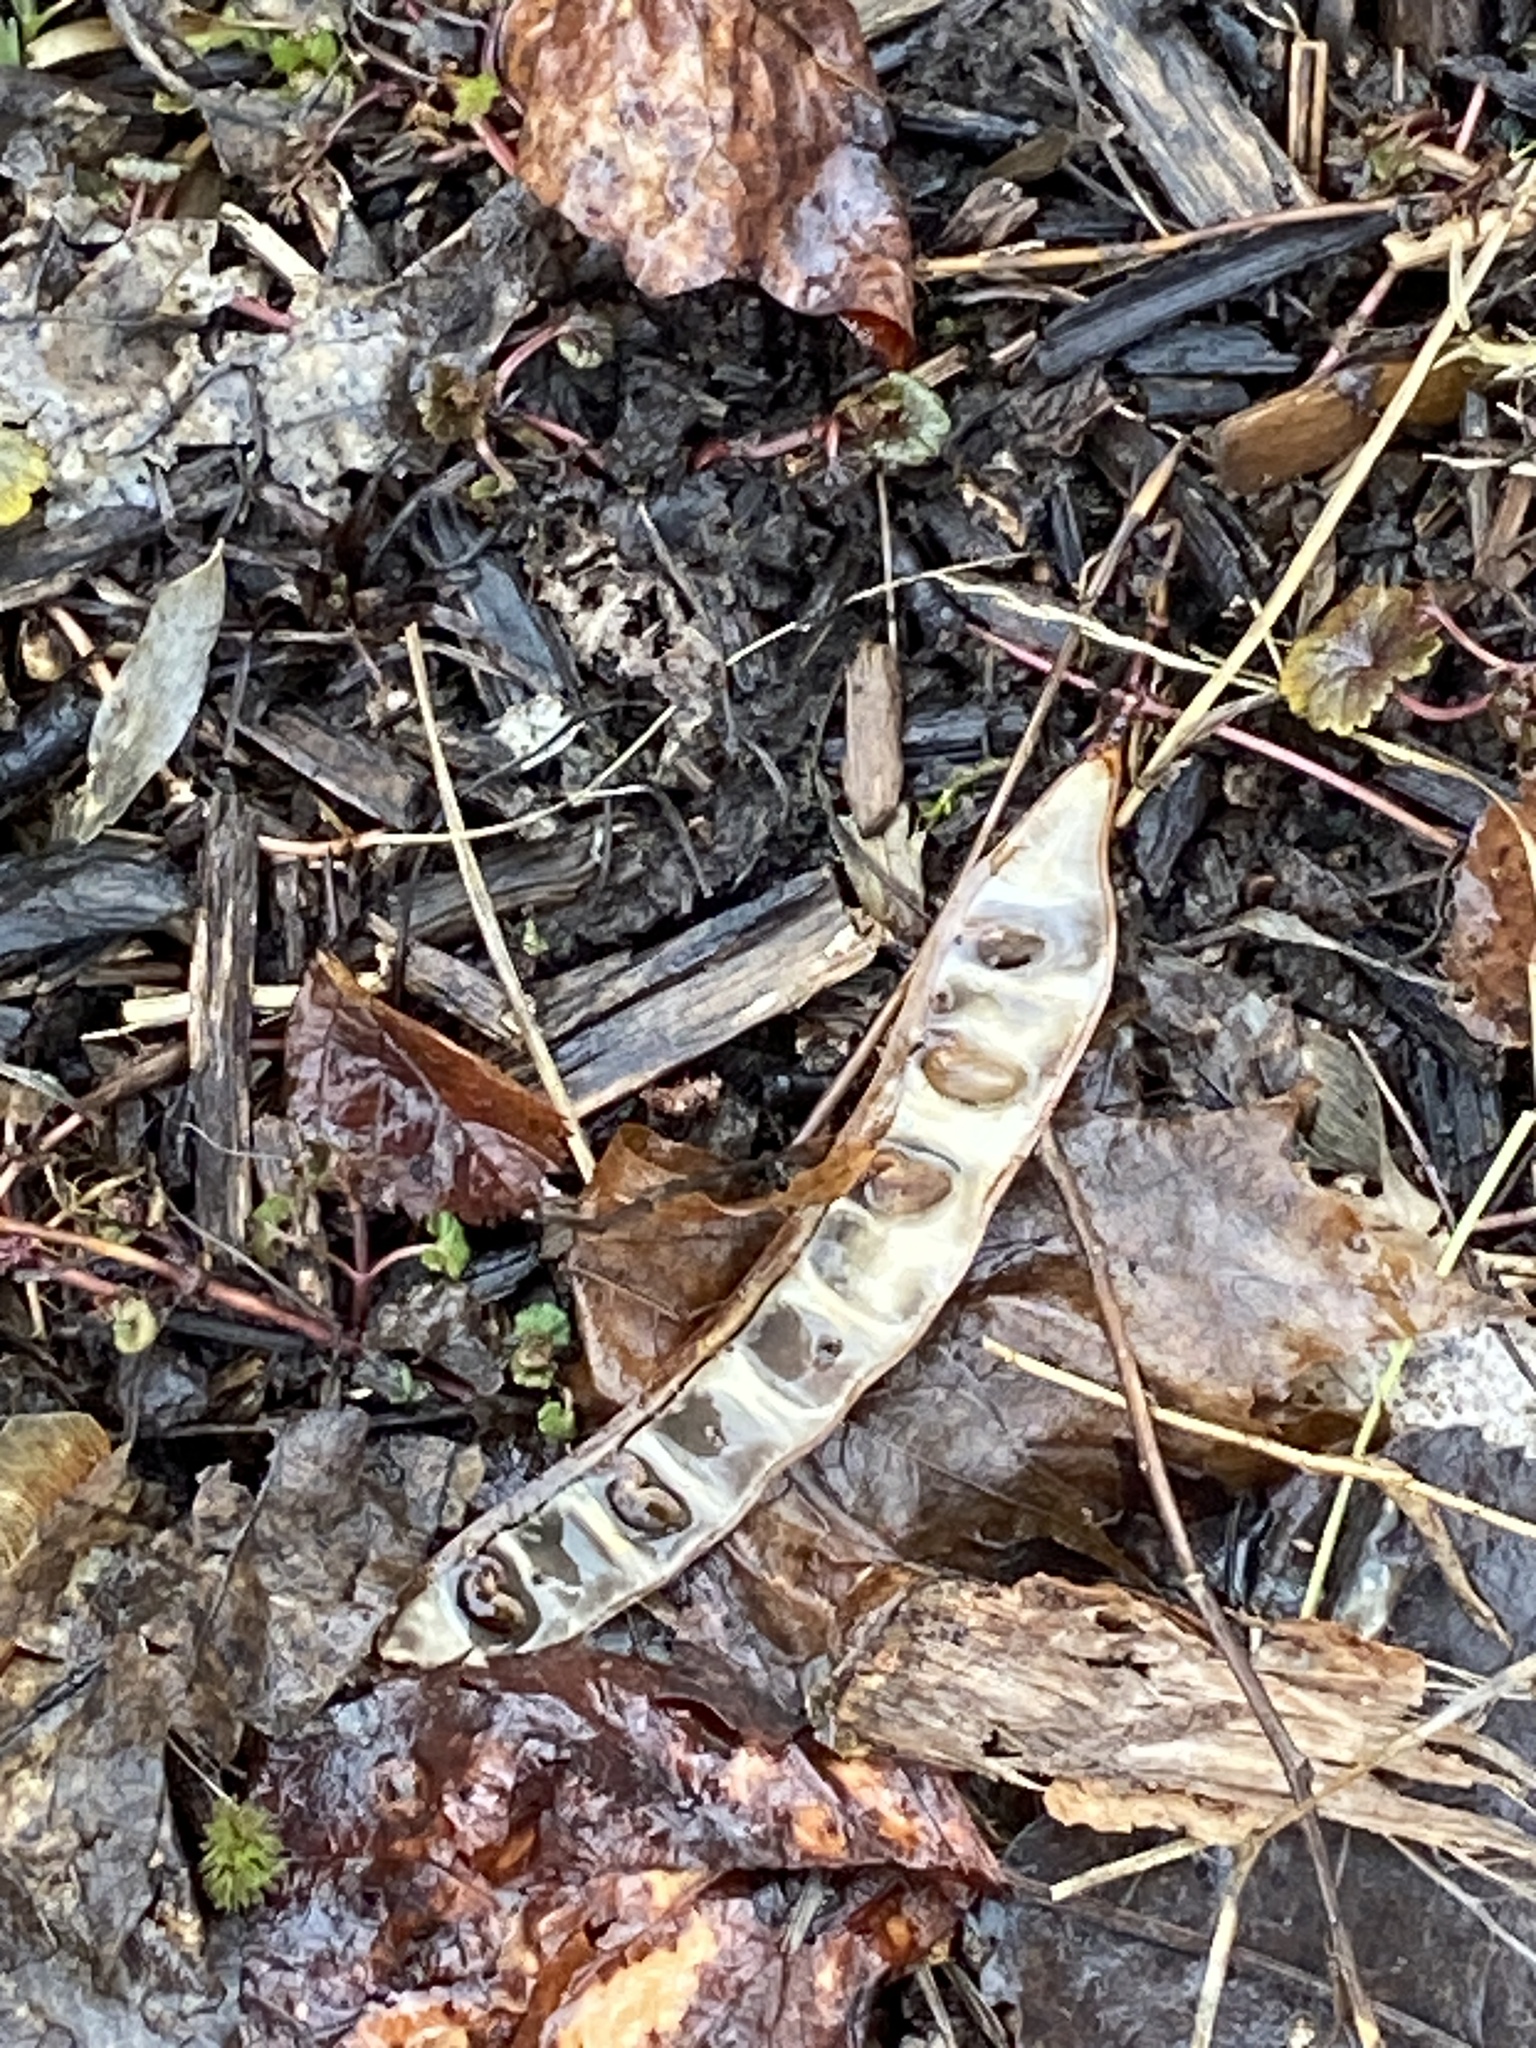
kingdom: Plantae
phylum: Tracheophyta
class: Magnoliopsida
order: Fabales
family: Fabaceae
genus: Robinia
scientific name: Robinia pseudoacacia
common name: Black locust
